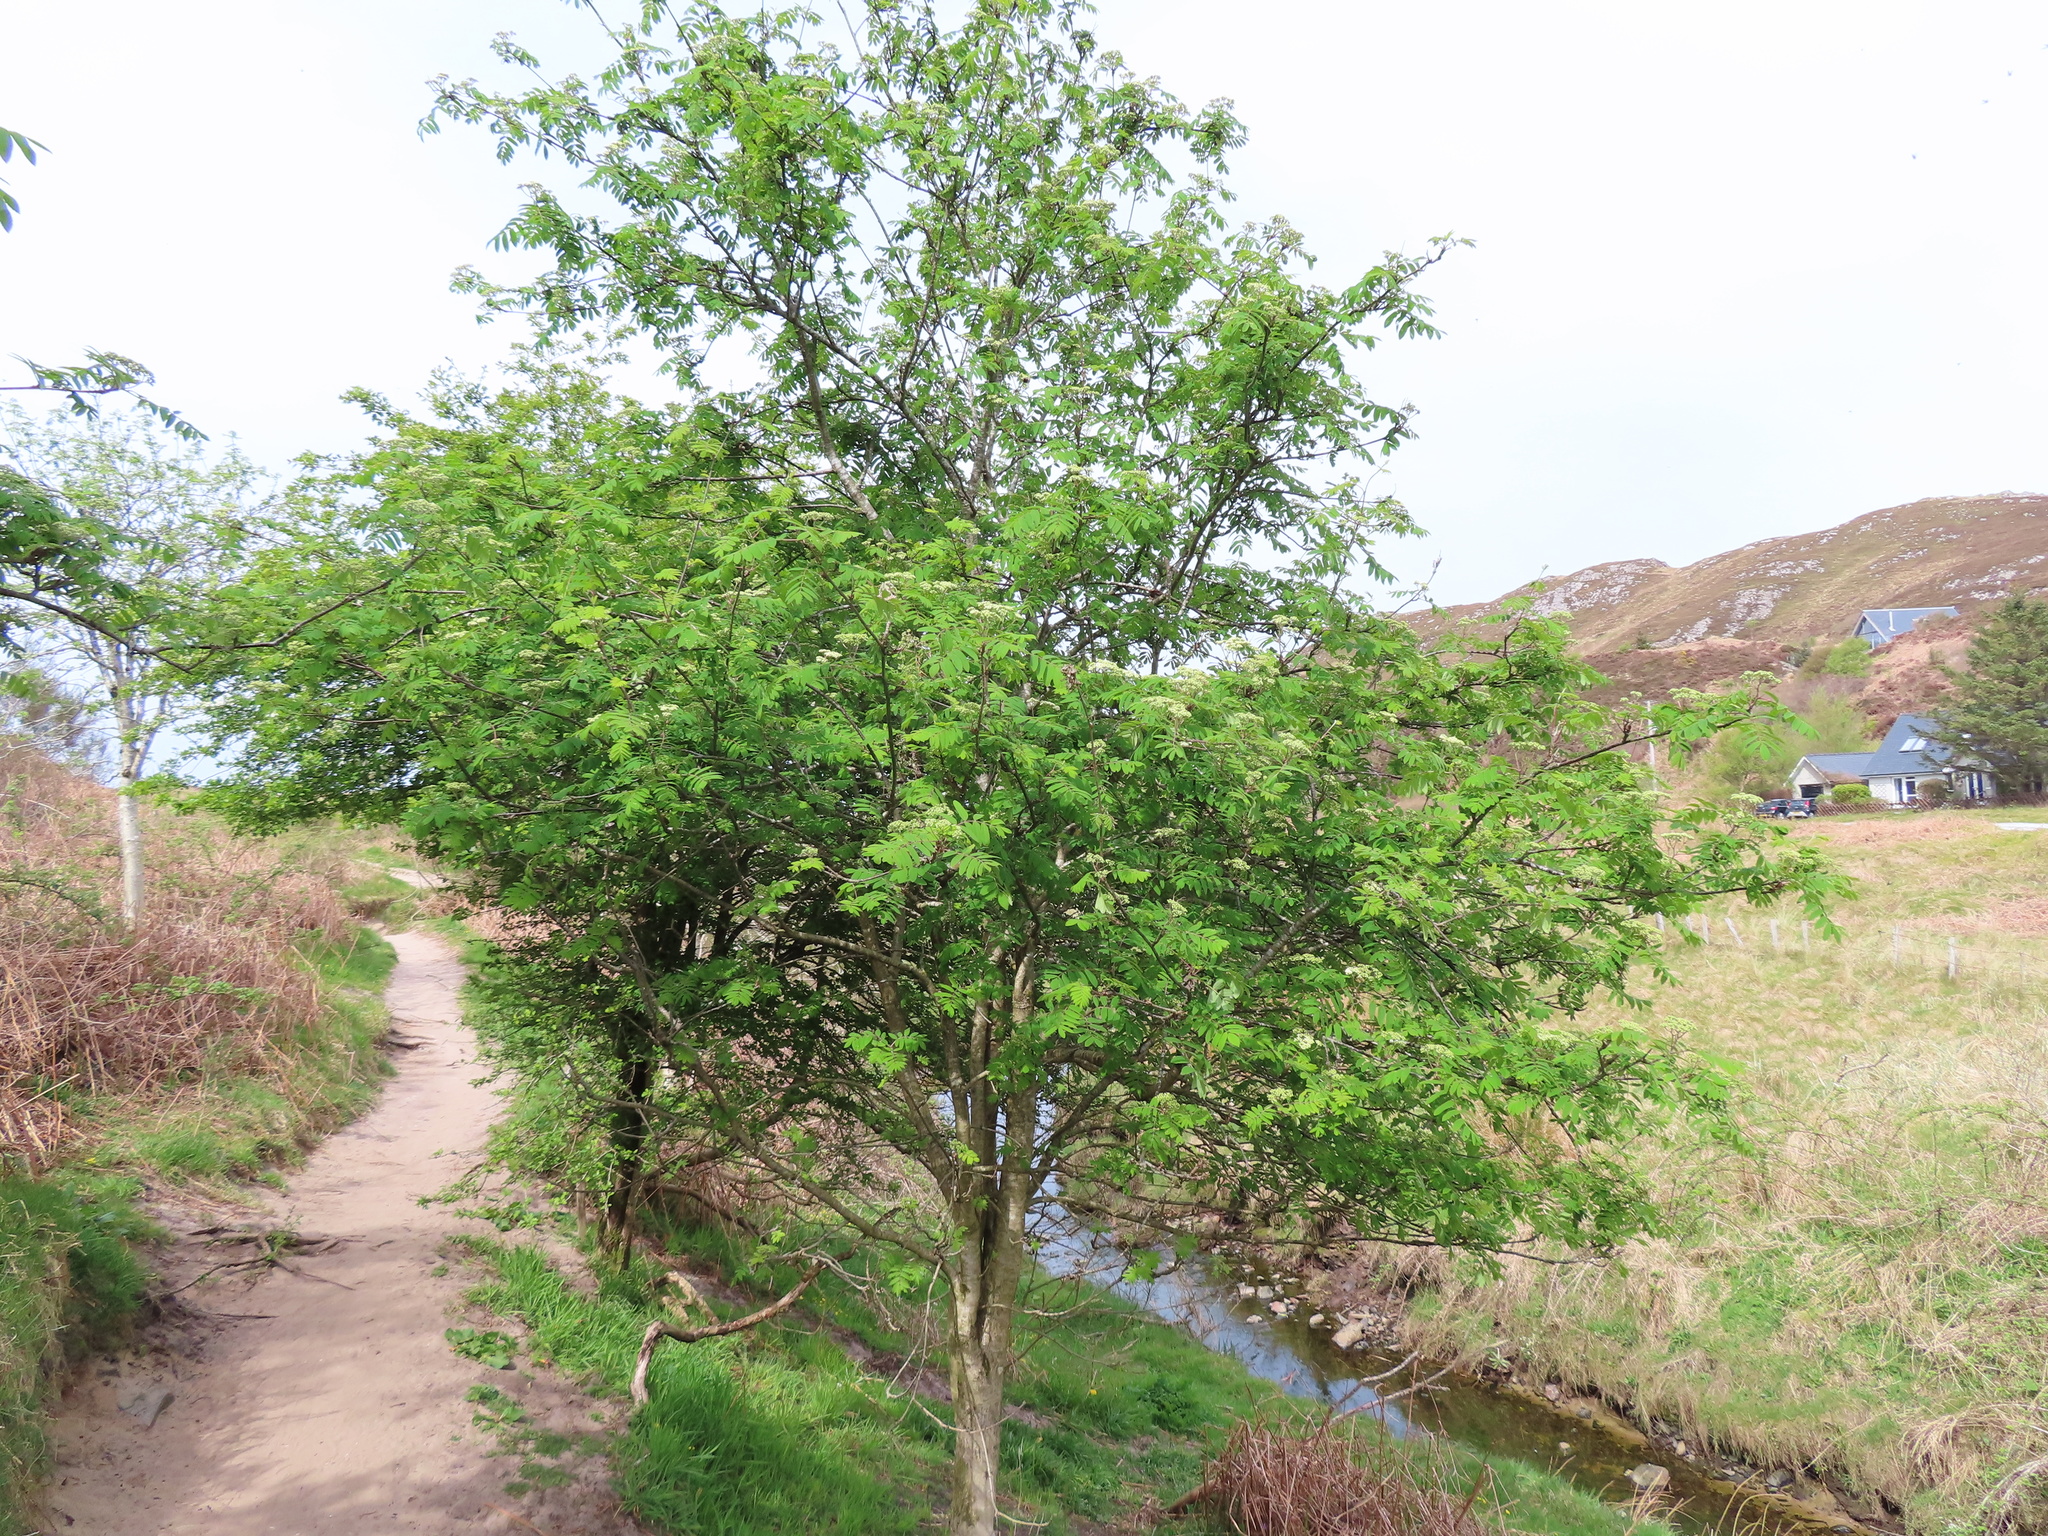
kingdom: Plantae
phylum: Tracheophyta
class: Magnoliopsida
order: Rosales
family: Rosaceae
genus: Sorbus
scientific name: Sorbus aucuparia
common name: Rowan
